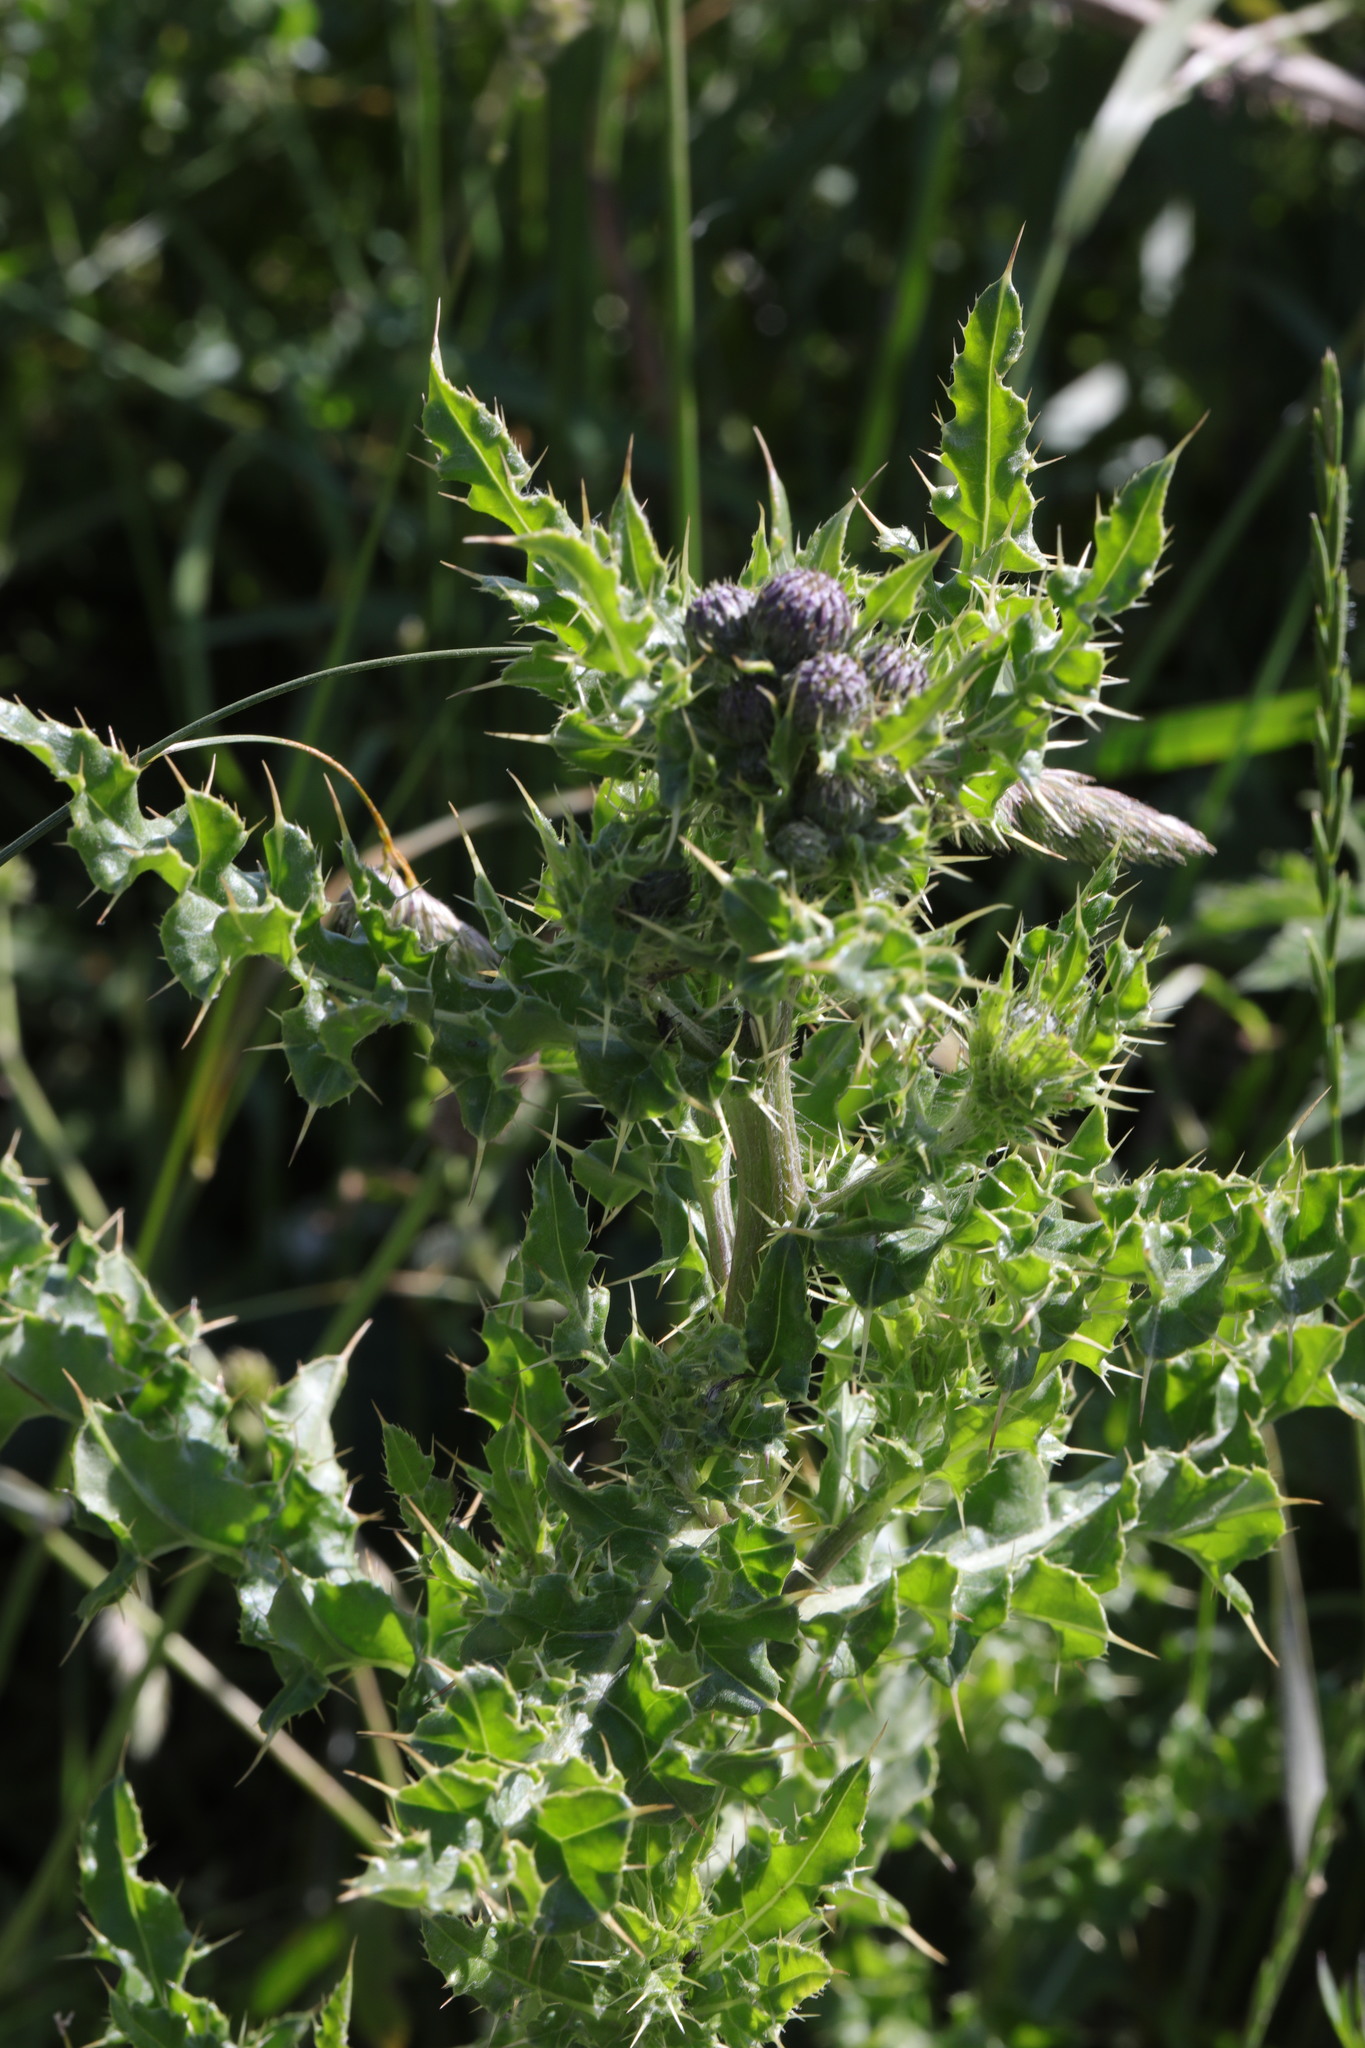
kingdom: Plantae
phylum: Tracheophyta
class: Magnoliopsida
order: Asterales
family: Asteraceae
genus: Cirsium
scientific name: Cirsium arvense
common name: Creeping thistle
